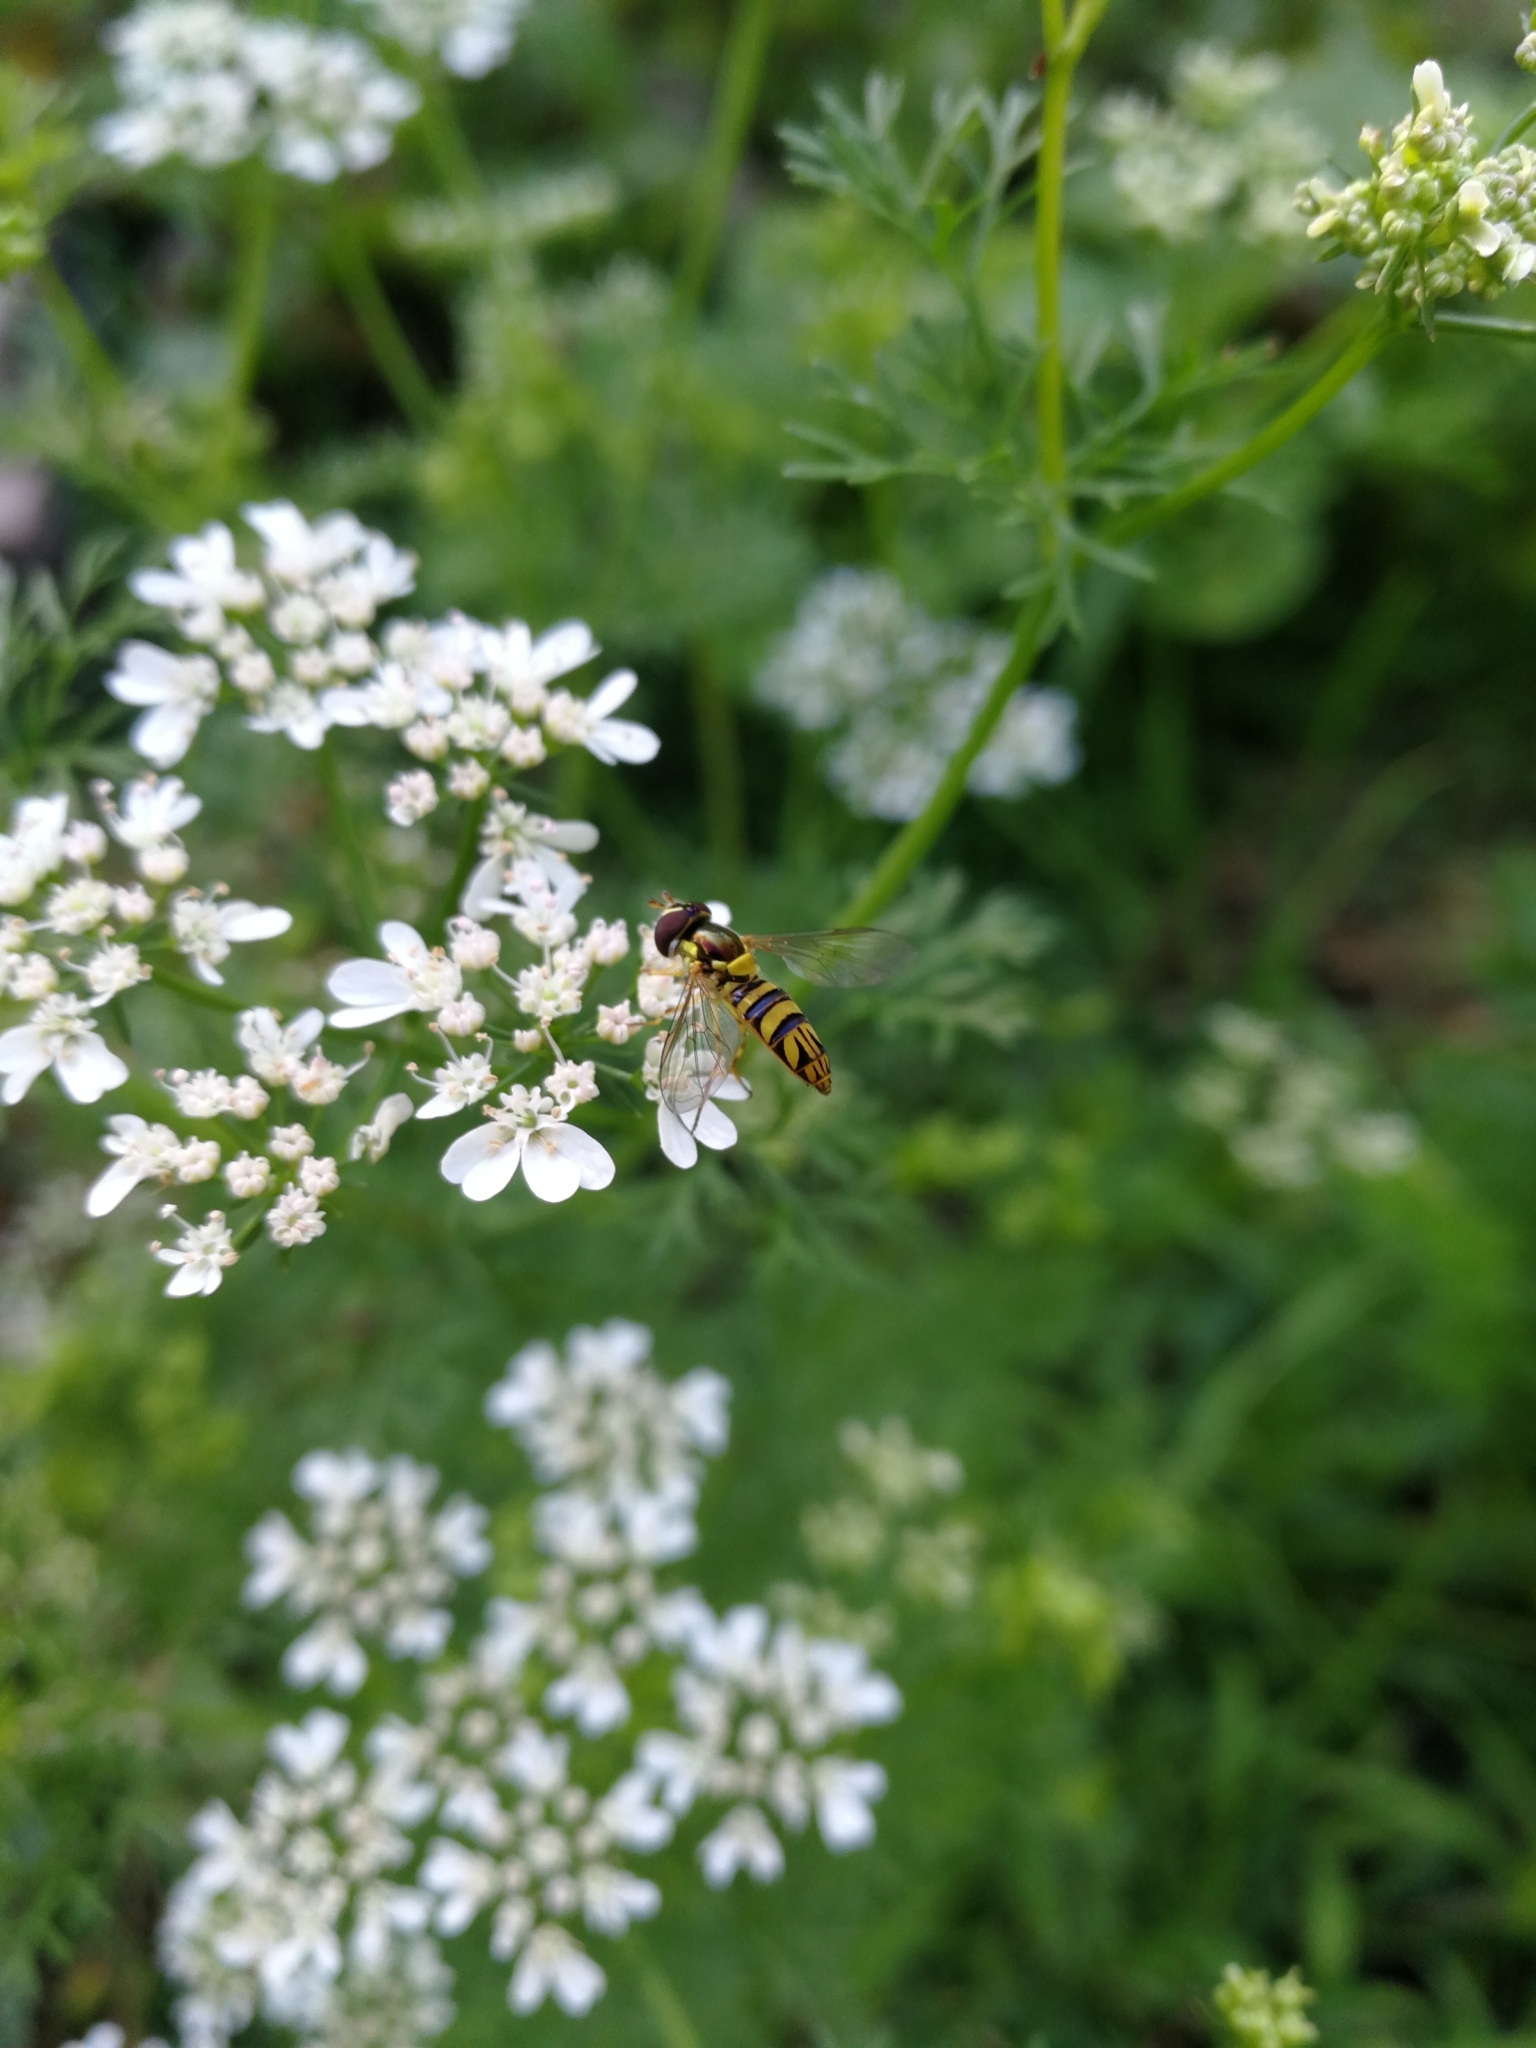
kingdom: Animalia
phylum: Arthropoda
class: Insecta
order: Diptera
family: Syrphidae
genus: Allograpta
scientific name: Allograpta obliqua
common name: Common oblique syrphid
